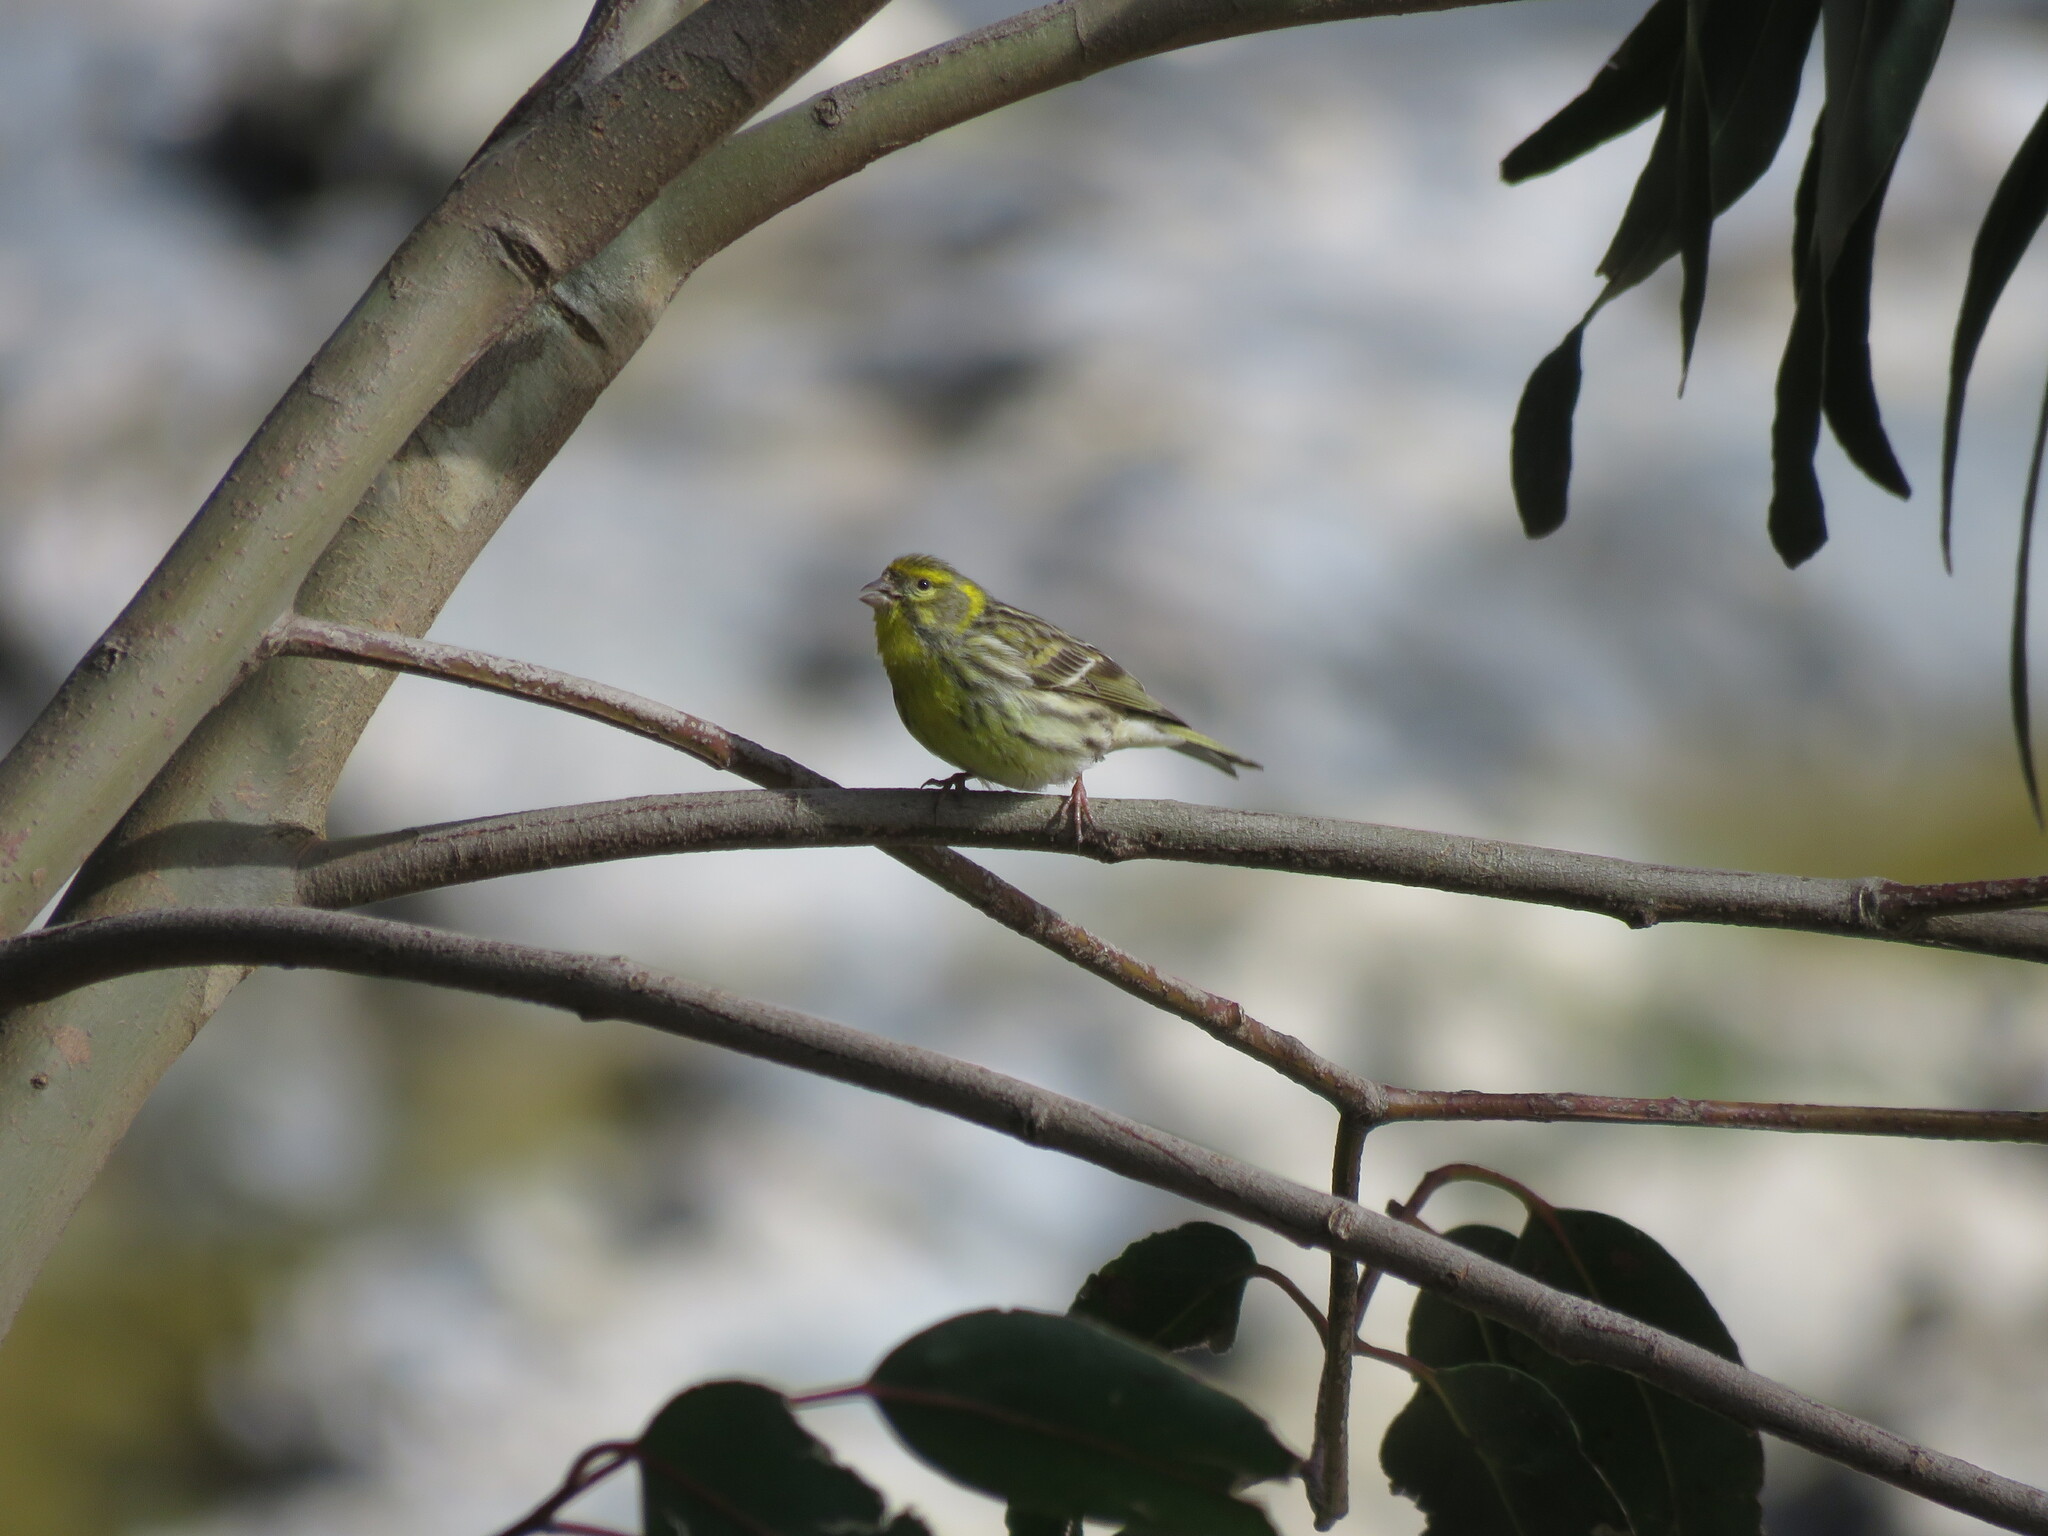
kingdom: Animalia
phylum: Chordata
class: Aves
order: Passeriformes
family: Fringillidae
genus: Serinus
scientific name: Serinus serinus
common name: European serin
